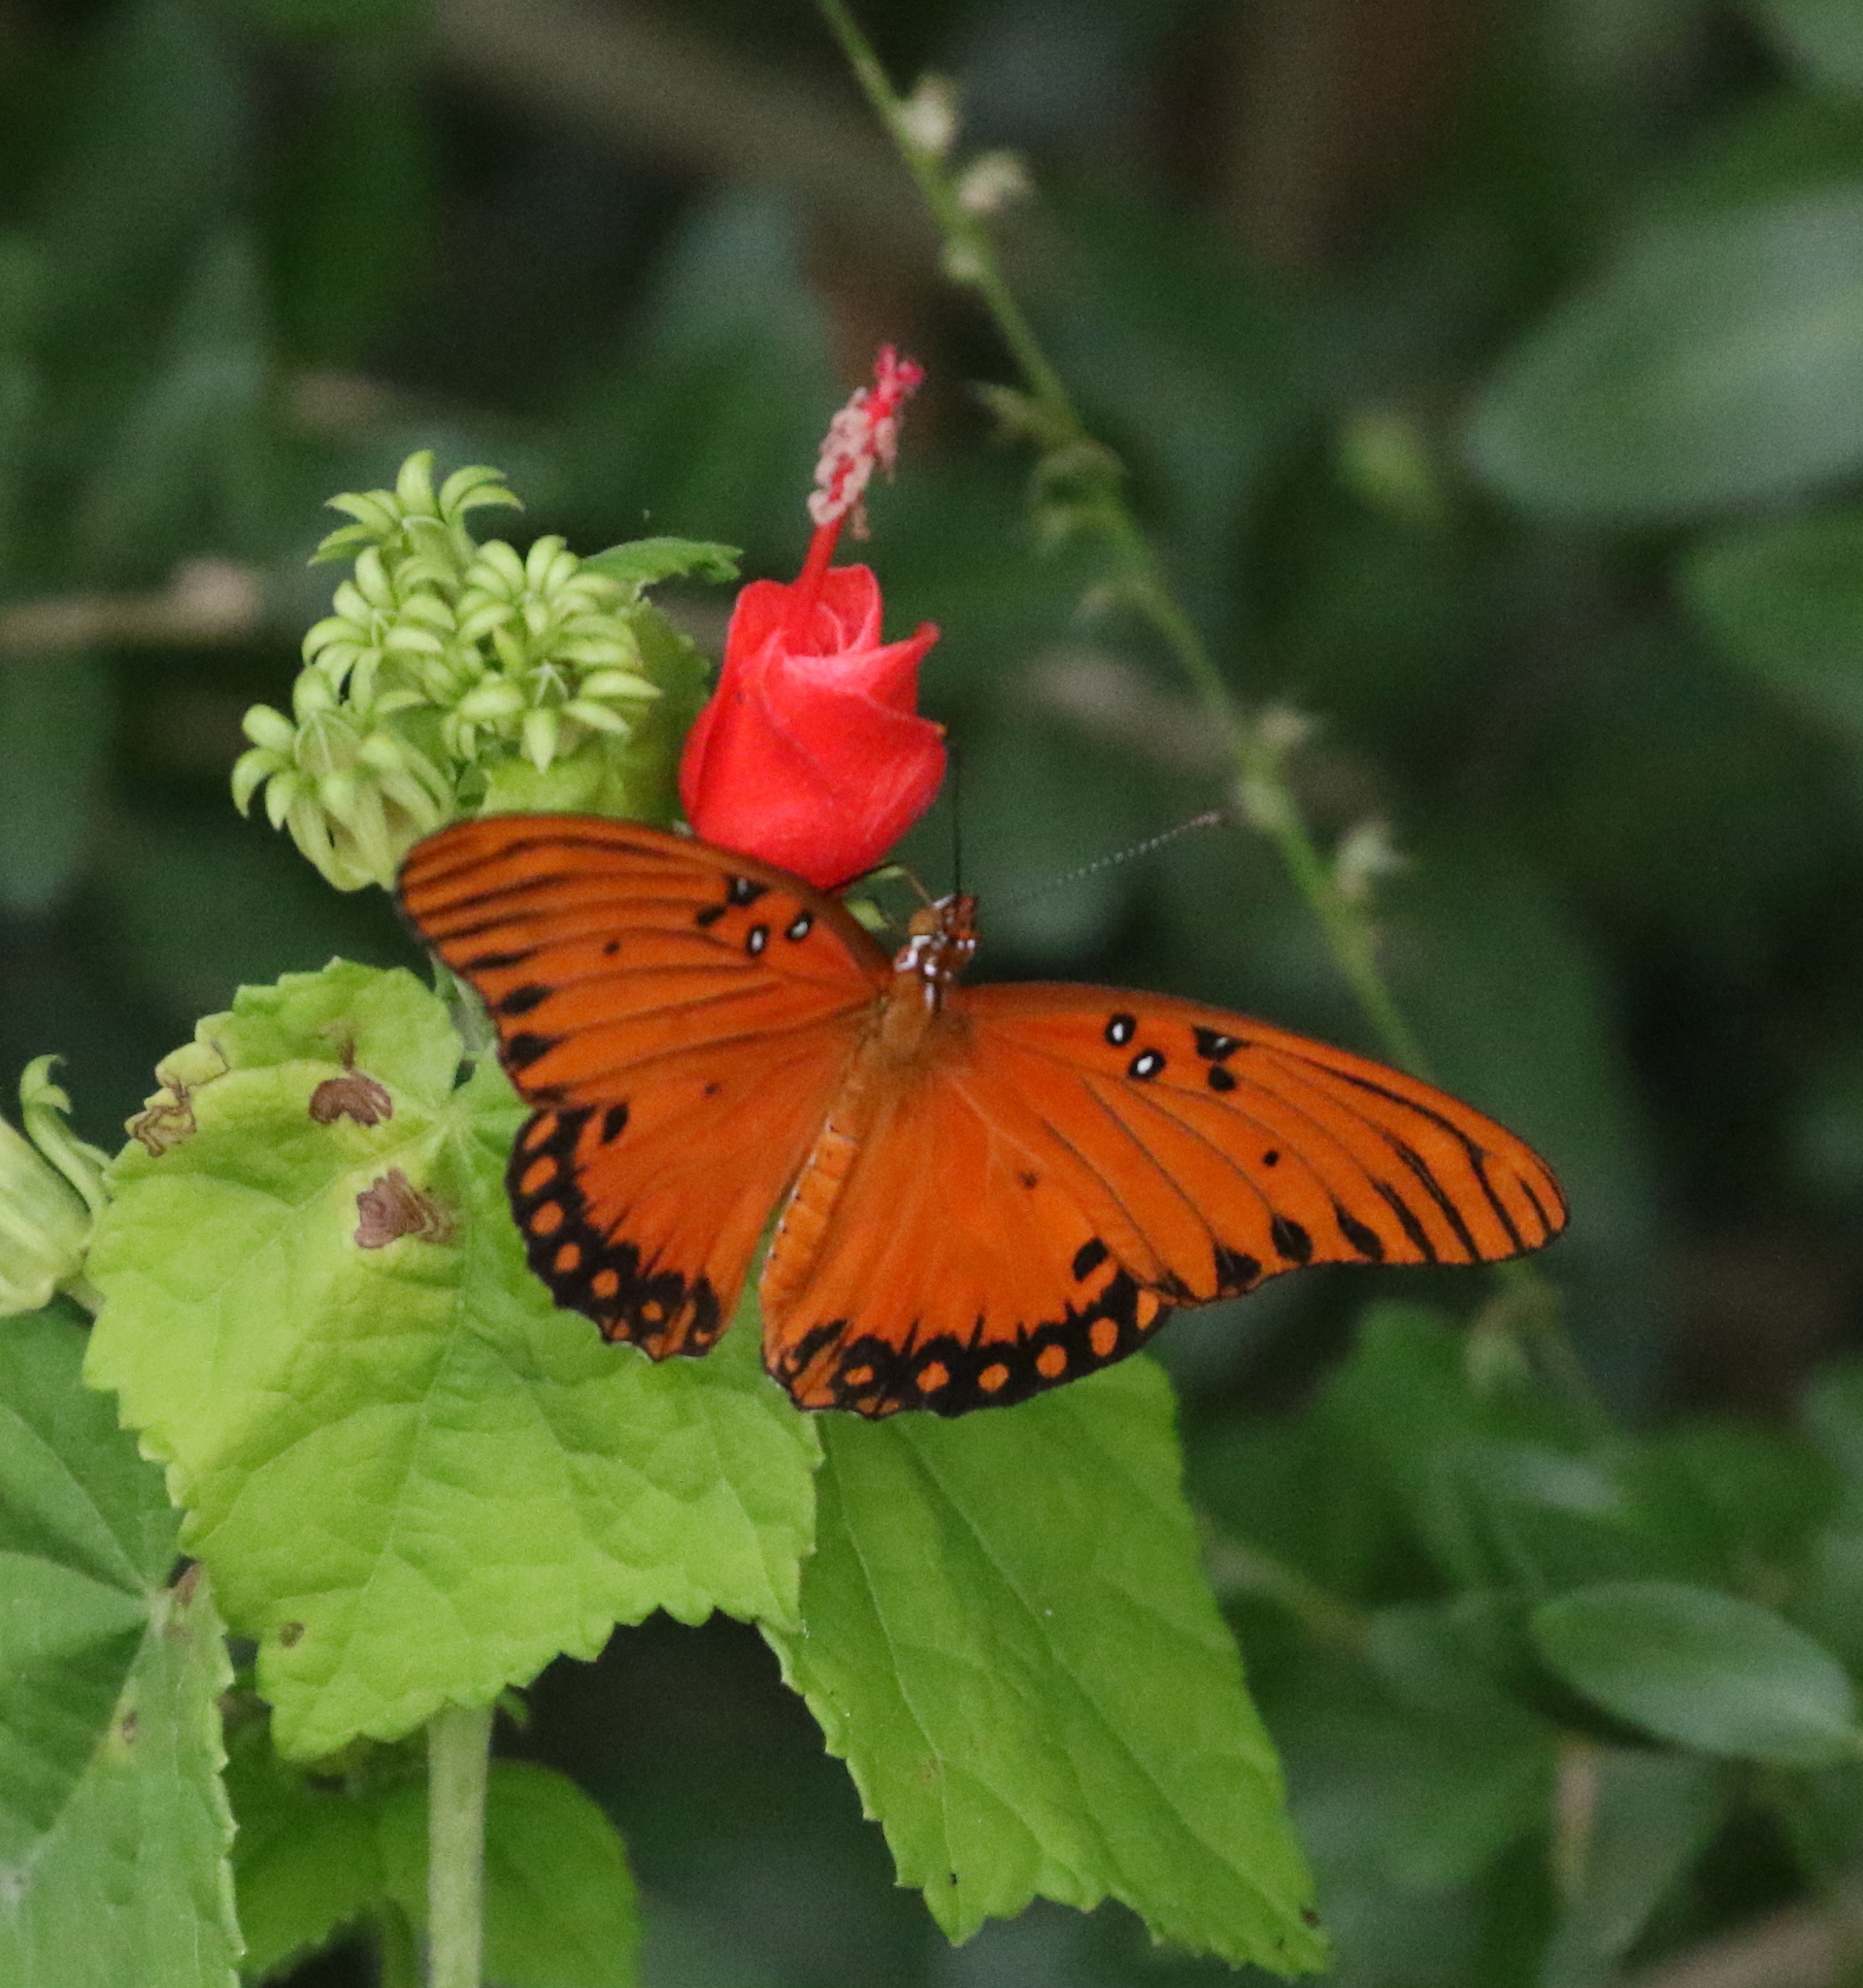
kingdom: Animalia
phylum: Arthropoda
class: Insecta
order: Lepidoptera
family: Nymphalidae
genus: Dione
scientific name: Dione vanillae
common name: Gulf fritillary
